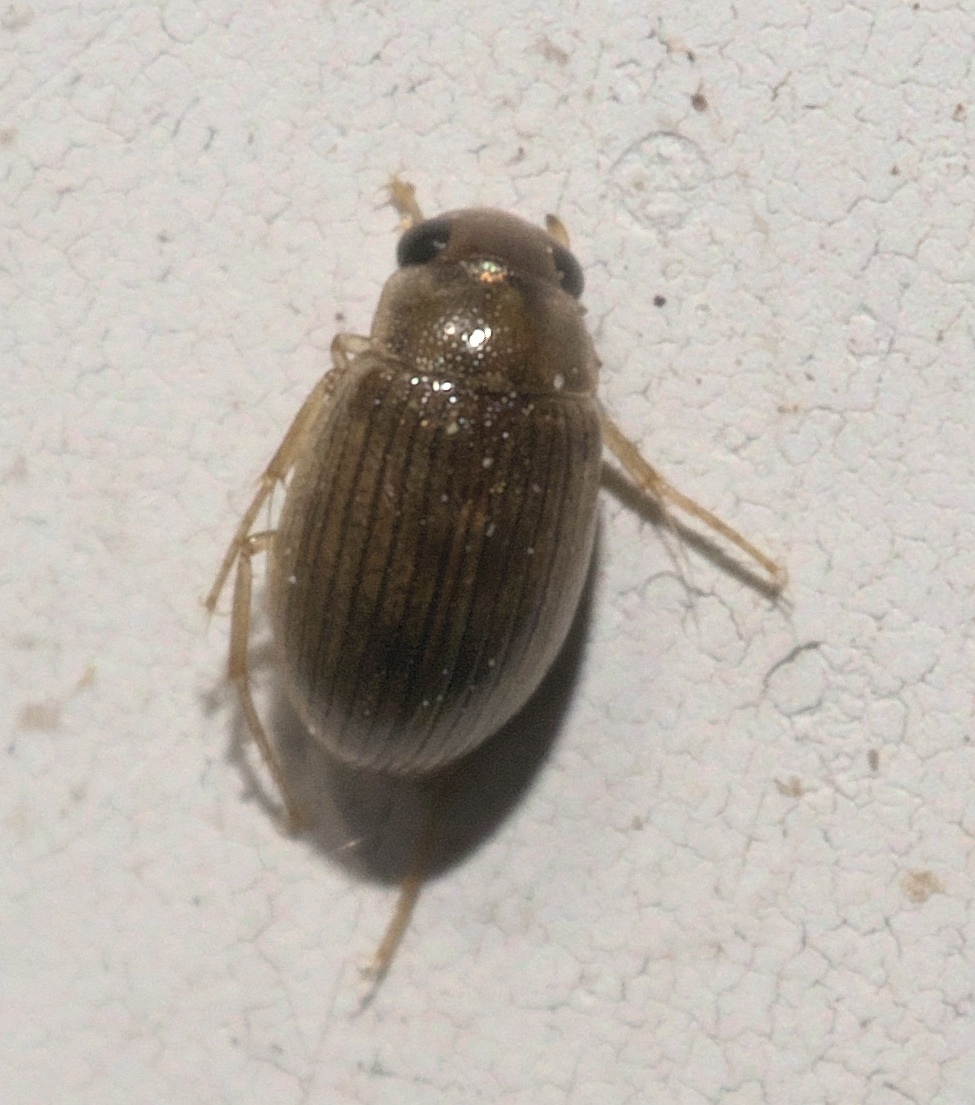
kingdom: Animalia
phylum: Arthropoda
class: Insecta
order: Coleoptera
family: Hydrophilidae
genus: Berosus
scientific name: Berosus exiguus
